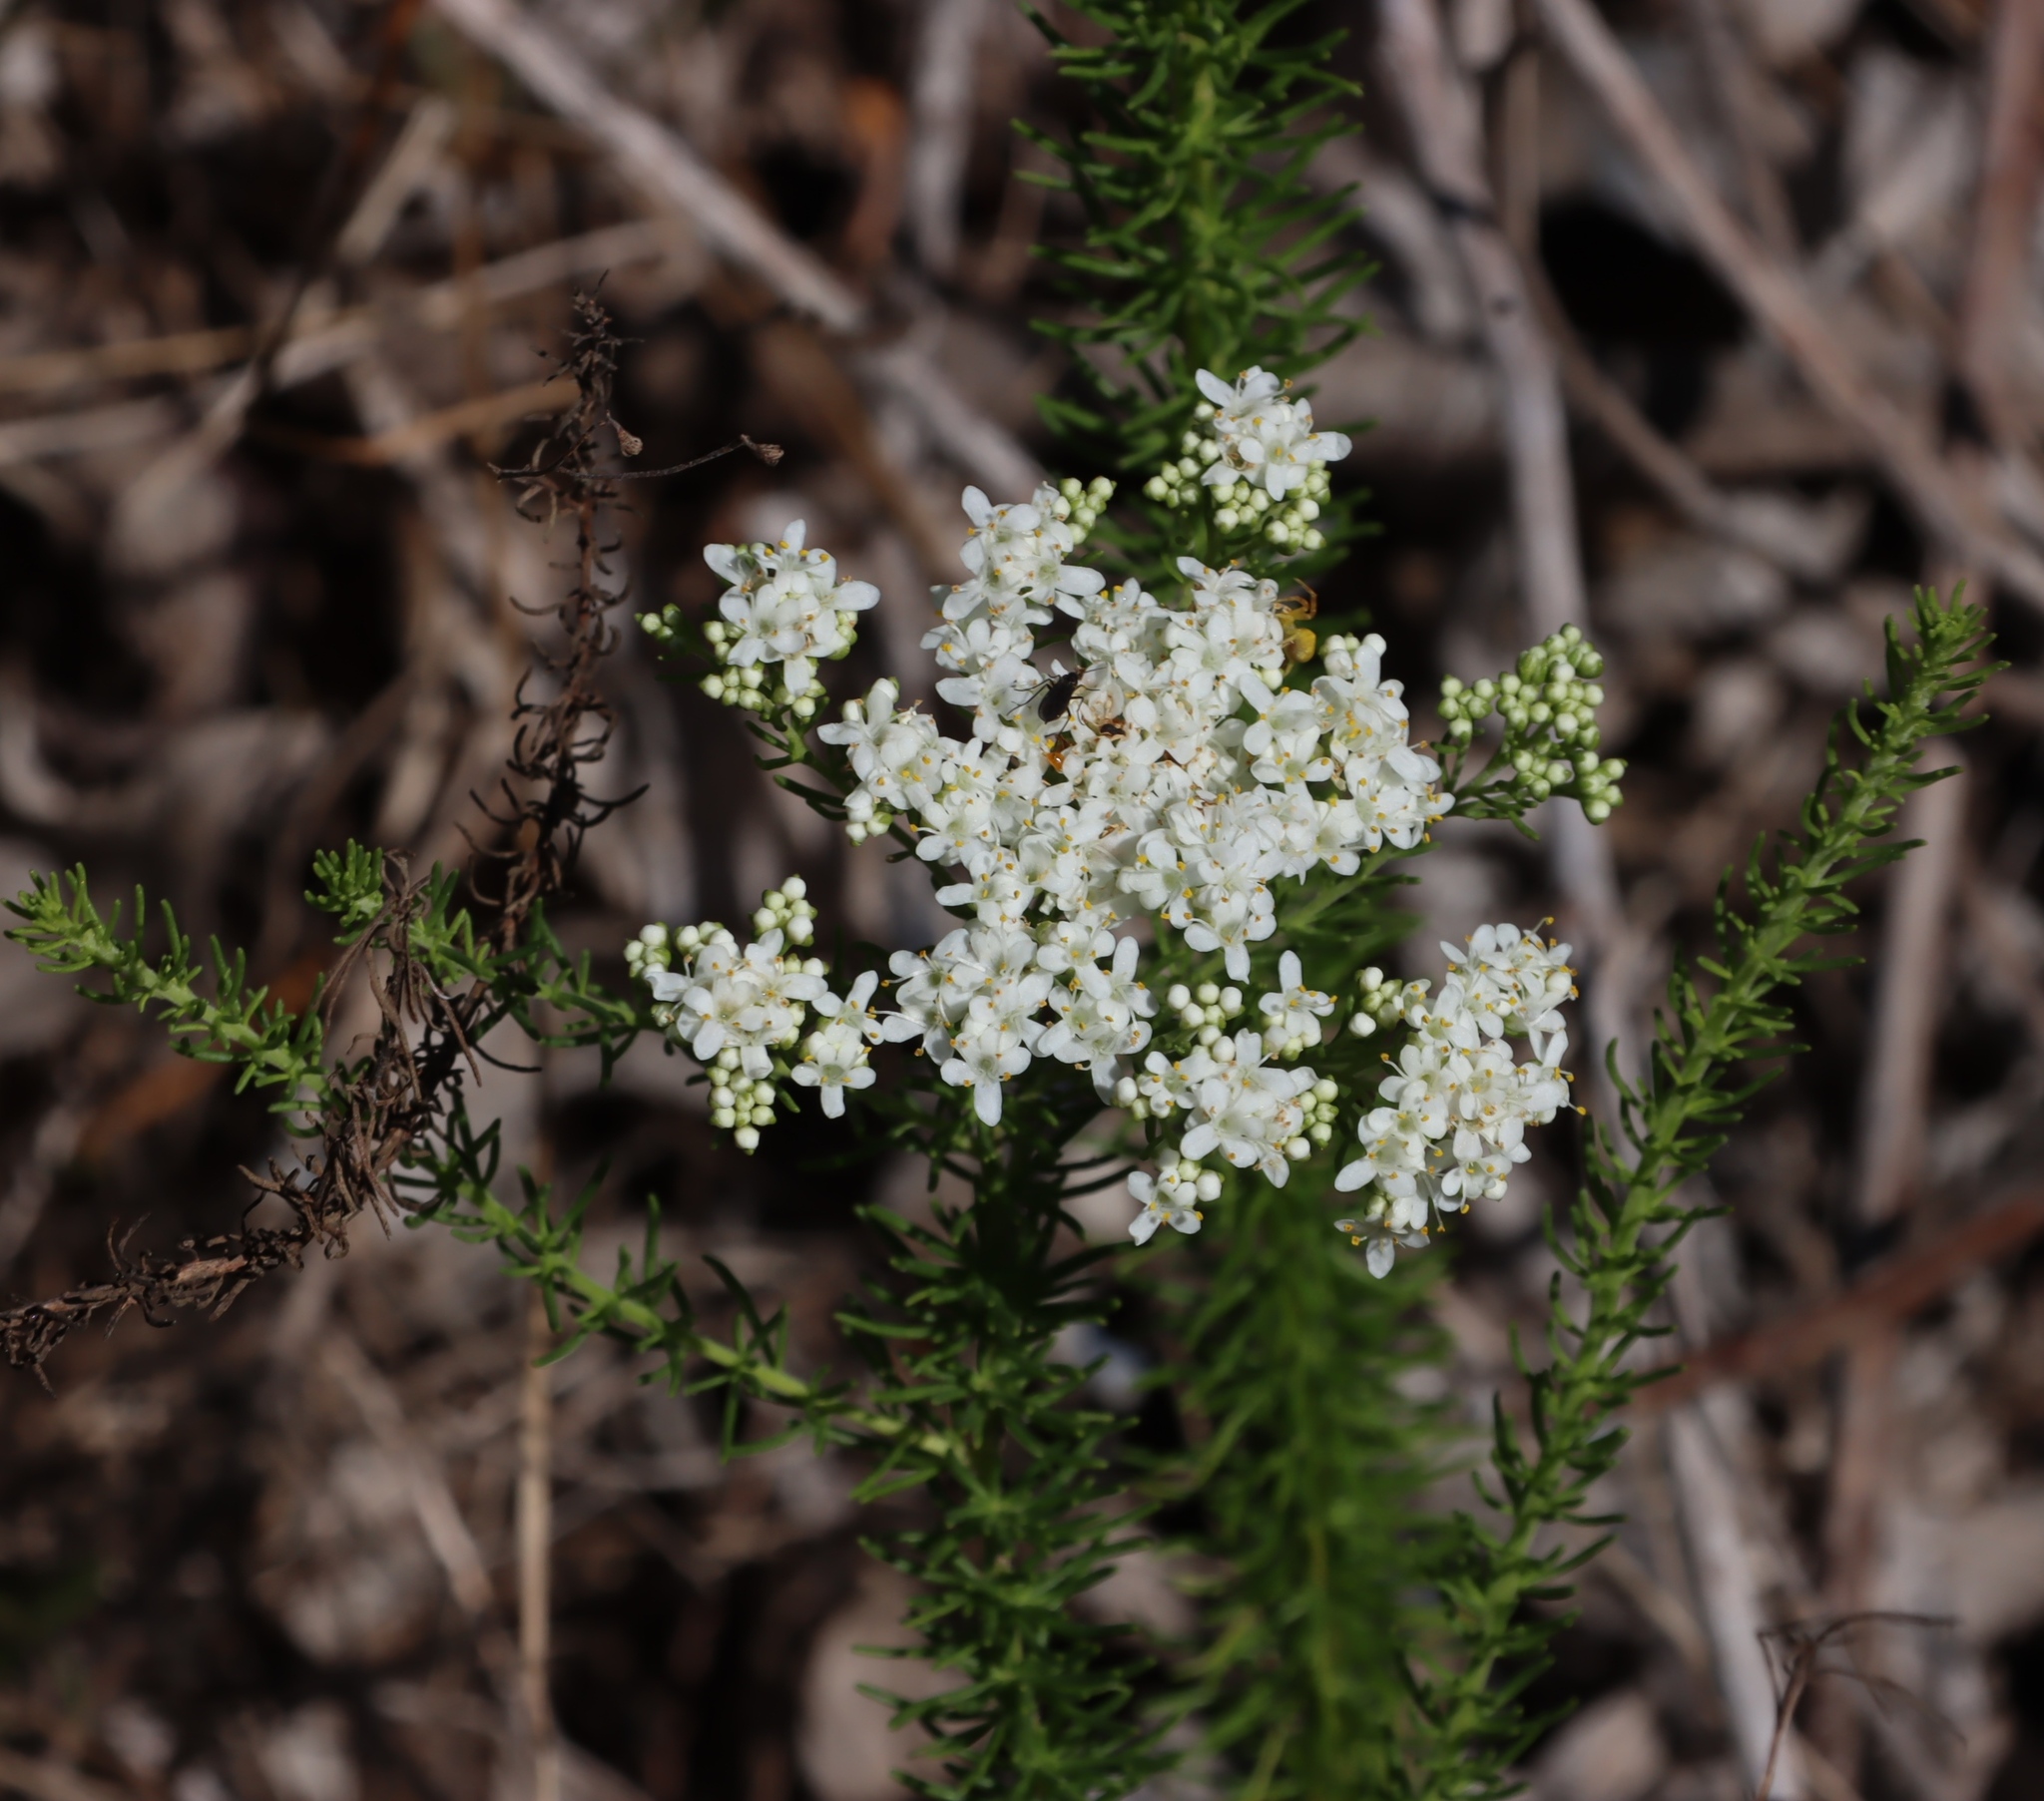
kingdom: Plantae
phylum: Tracheophyta
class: Magnoliopsida
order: Lamiales
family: Scrophulariaceae
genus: Selago
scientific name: Selago corymbosa
